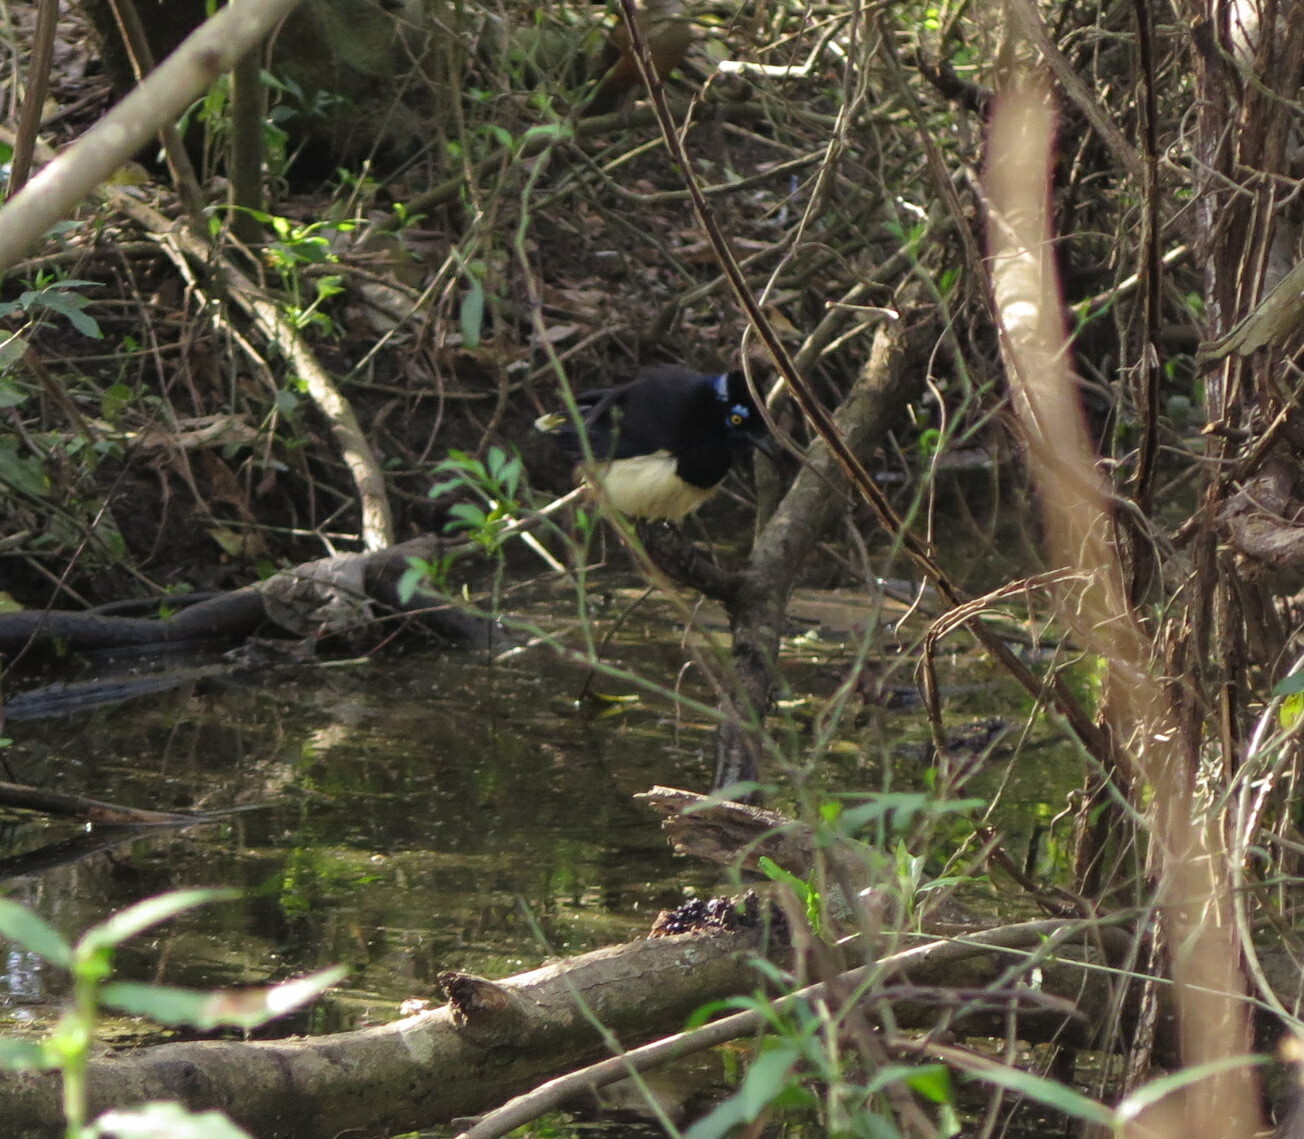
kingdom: Animalia
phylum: Chordata
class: Aves
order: Passeriformes
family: Corvidae
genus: Cyanocorax
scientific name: Cyanocorax chrysops
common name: Plush-crested jay
